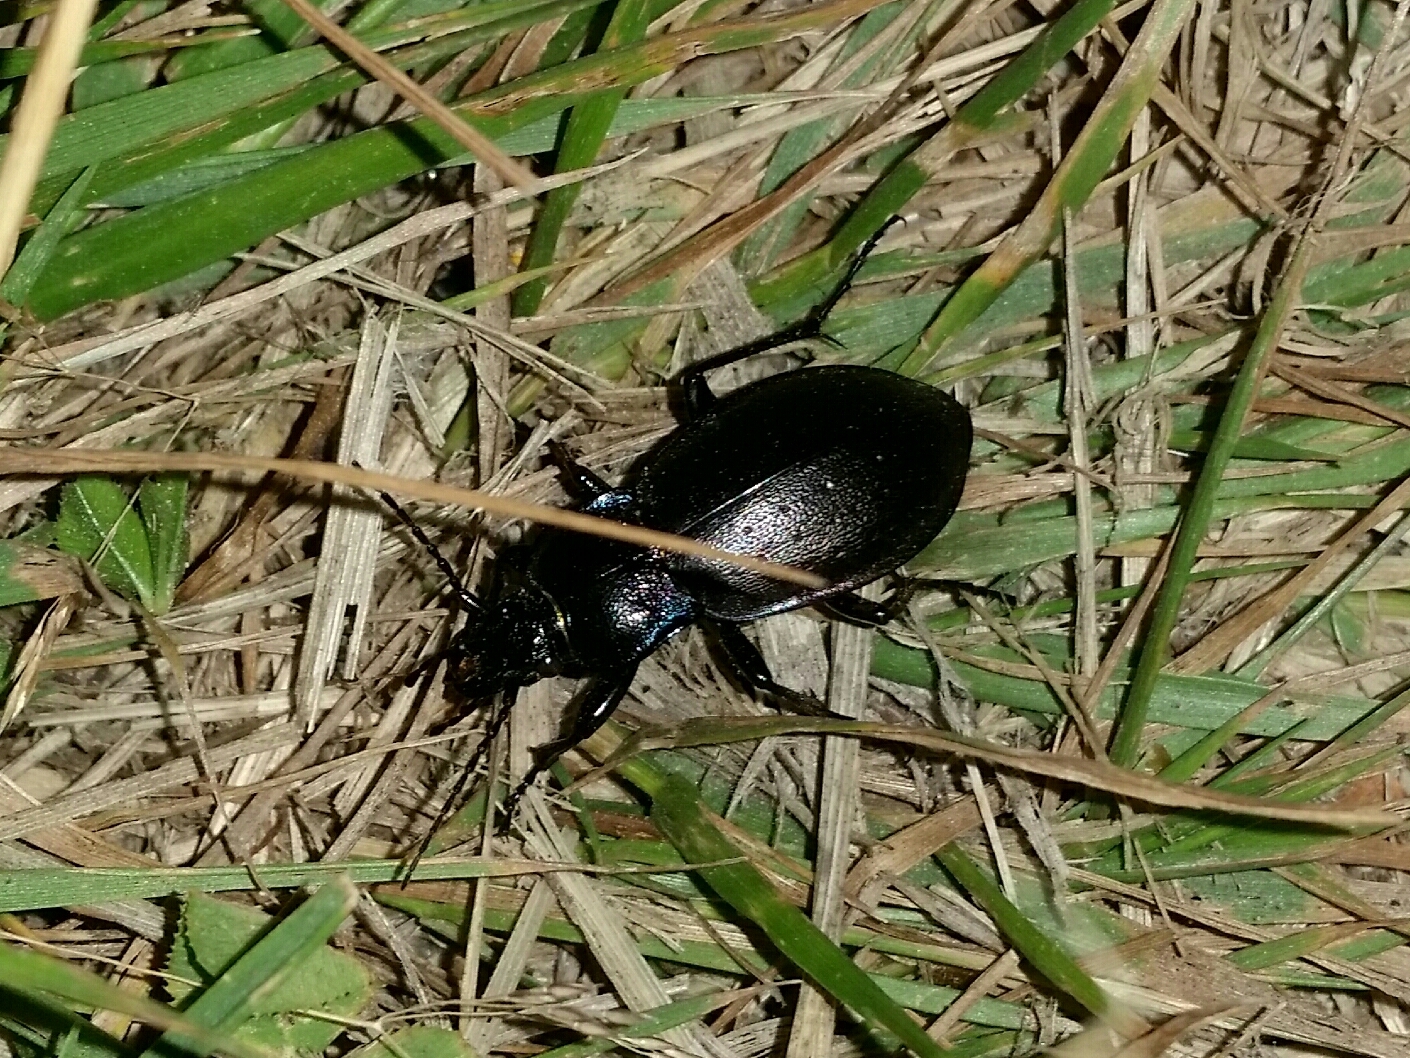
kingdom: Animalia
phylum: Arthropoda
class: Insecta
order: Coleoptera
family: Carabidae
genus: Carabus
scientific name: Carabus nemoralis
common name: European ground beetle
